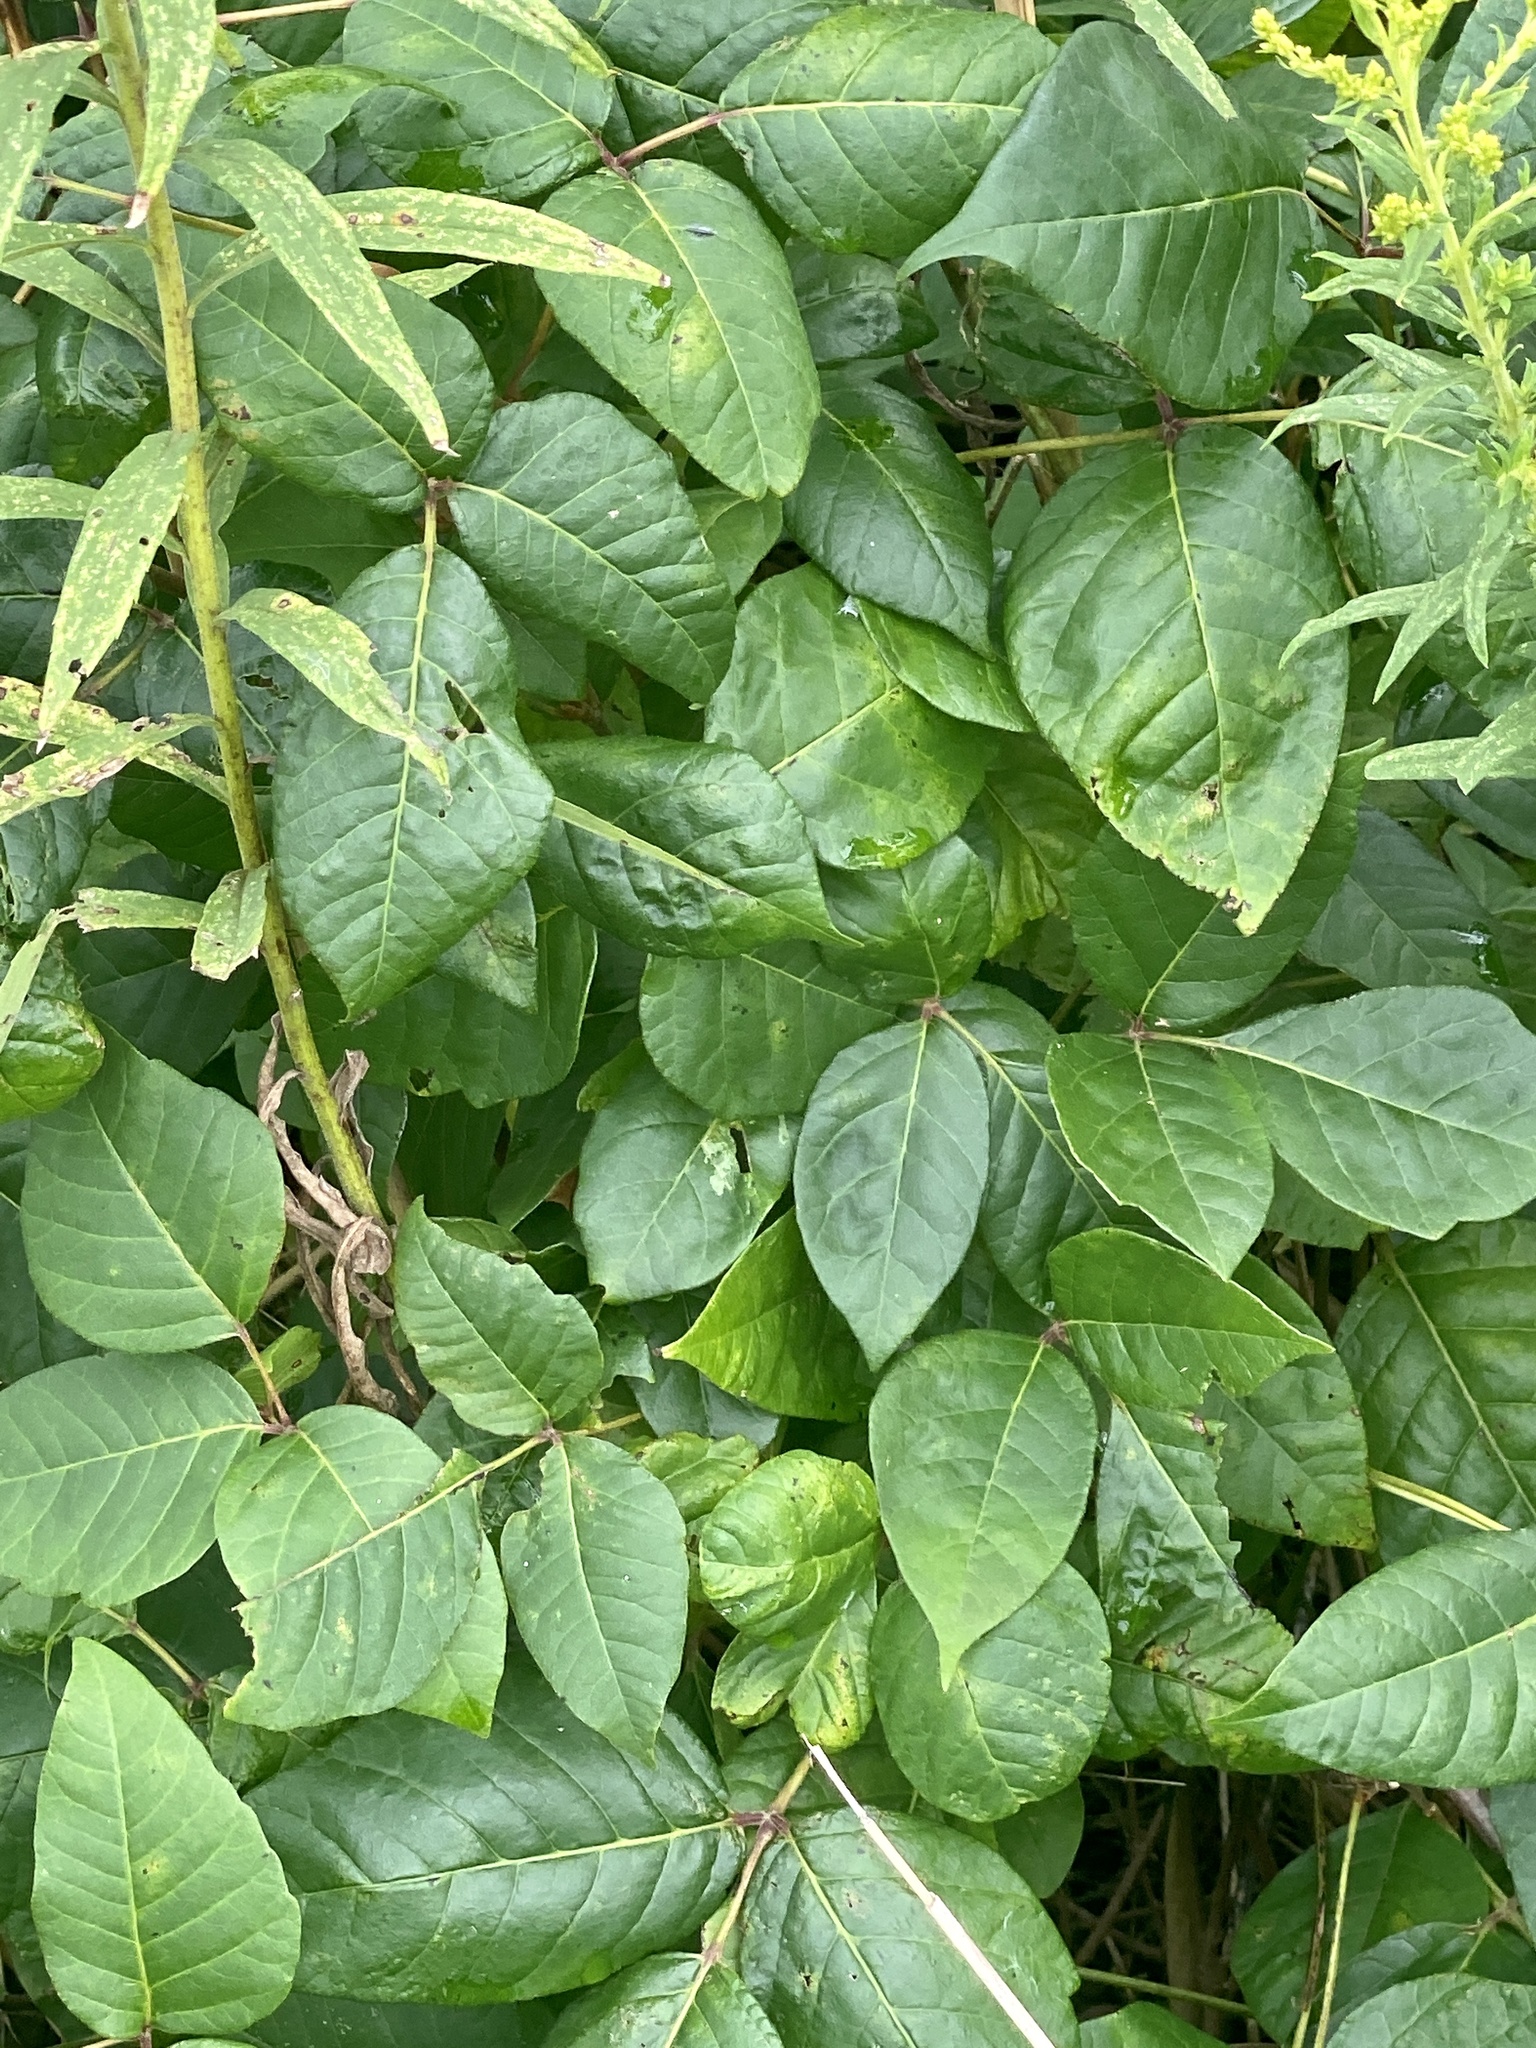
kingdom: Plantae
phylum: Tracheophyta
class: Magnoliopsida
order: Sapindales
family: Anacardiaceae
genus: Toxicodendron
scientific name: Toxicodendron radicans
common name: Poison ivy
